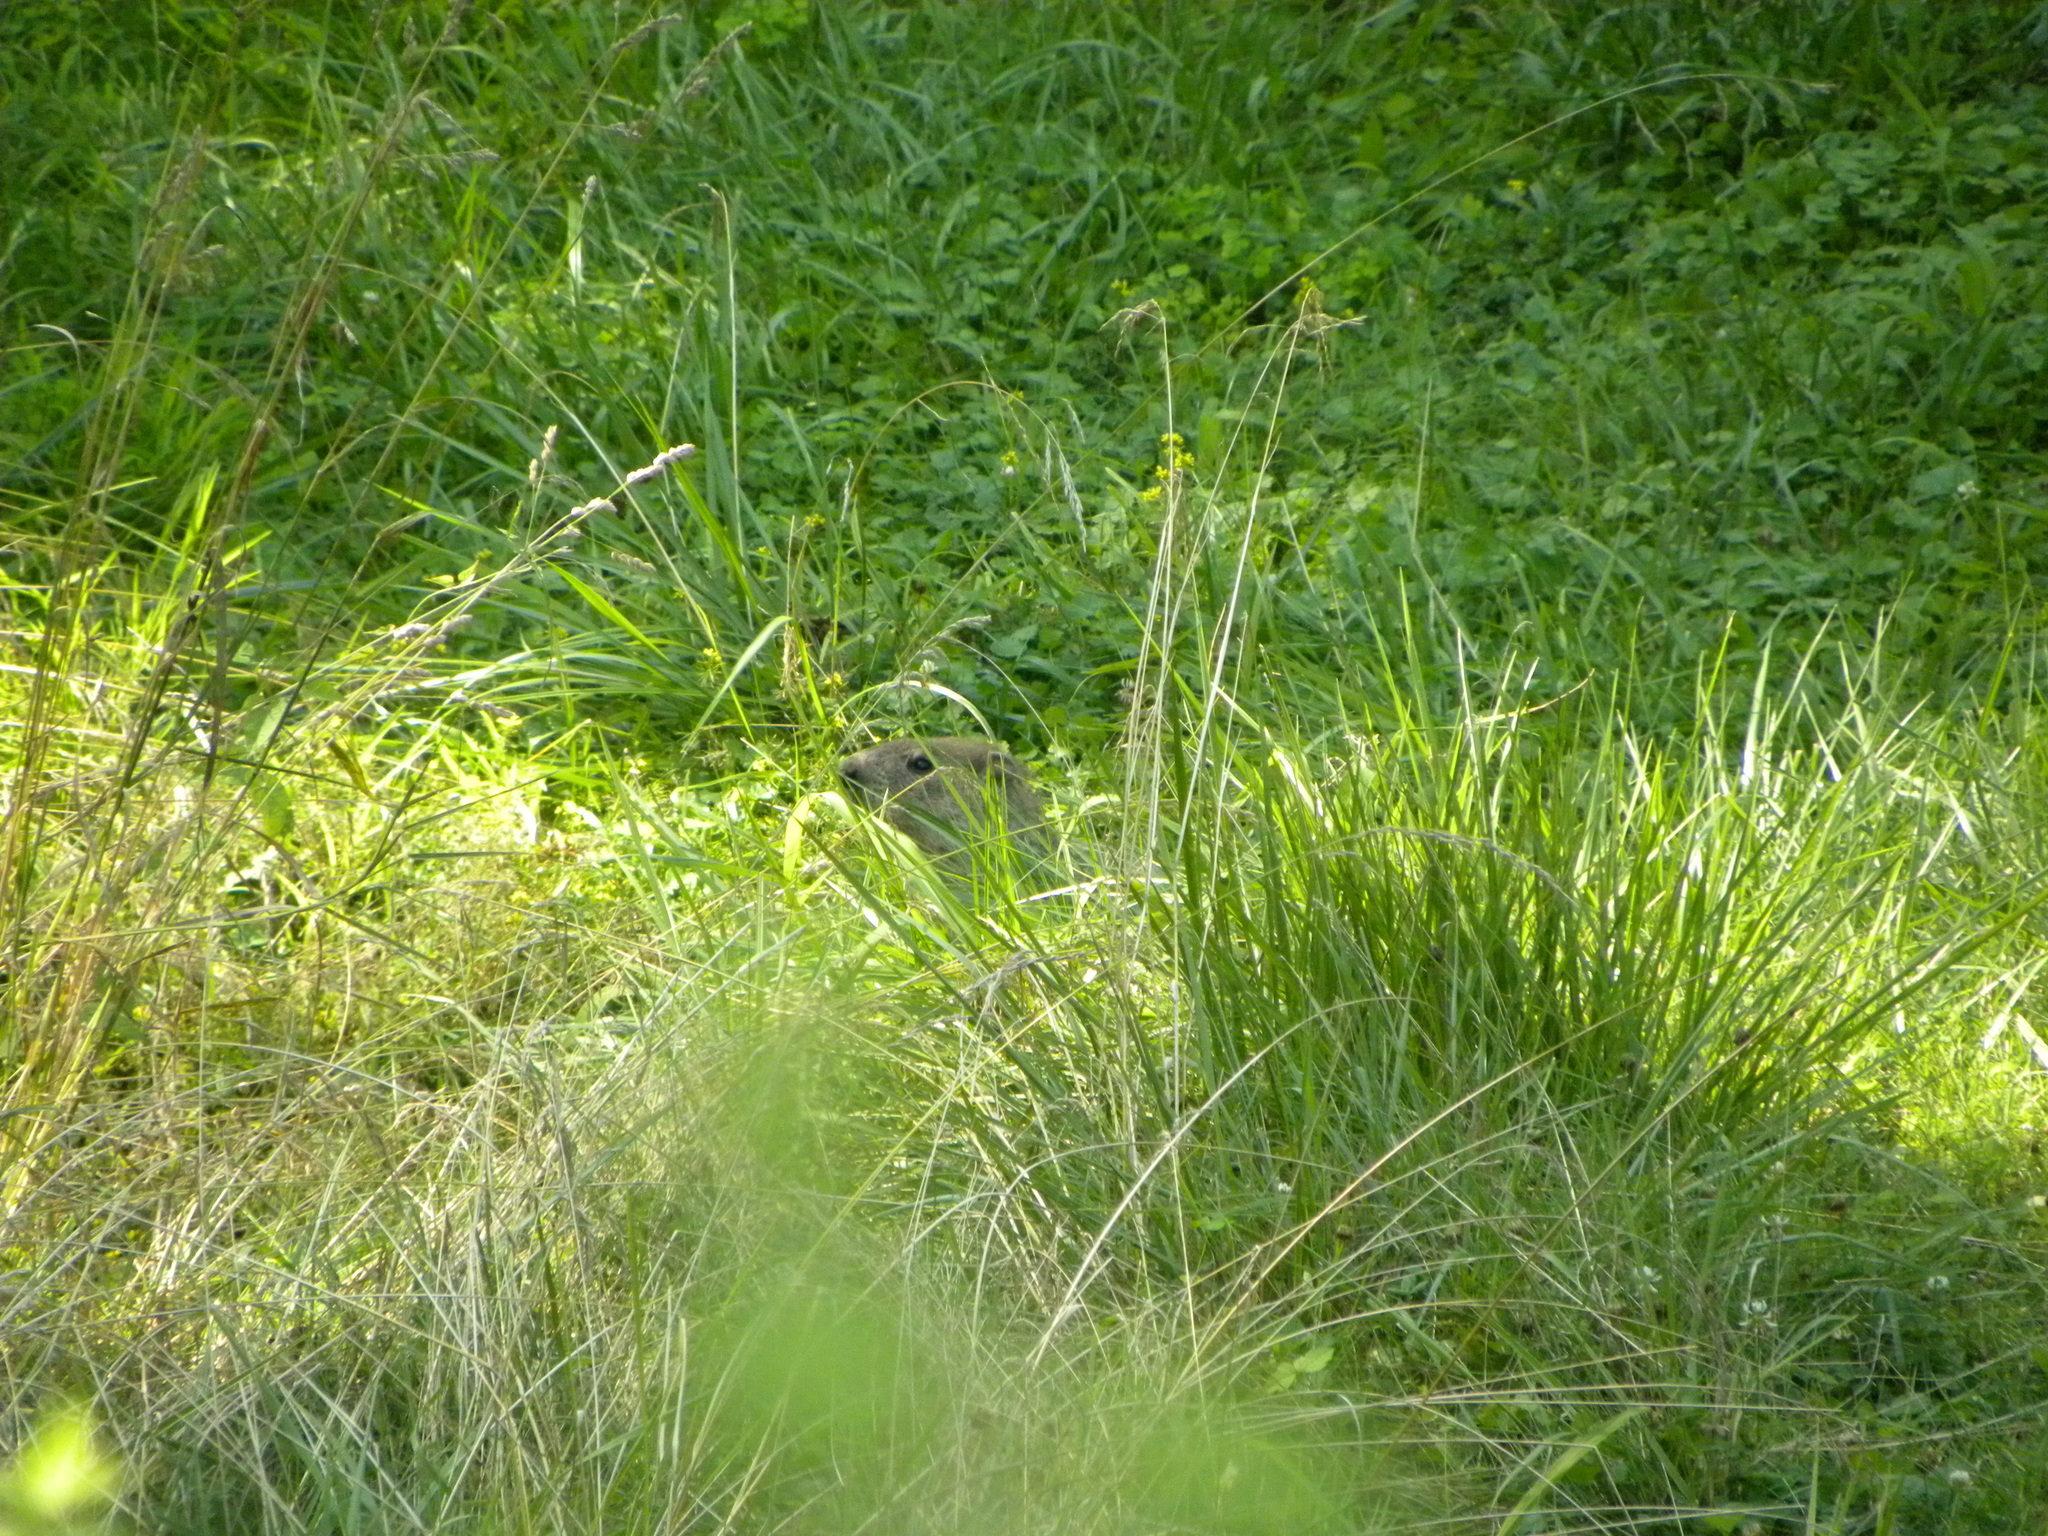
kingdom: Animalia
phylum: Chordata
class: Mammalia
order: Rodentia
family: Sciuridae
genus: Marmota
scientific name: Marmota monax
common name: Groundhog
